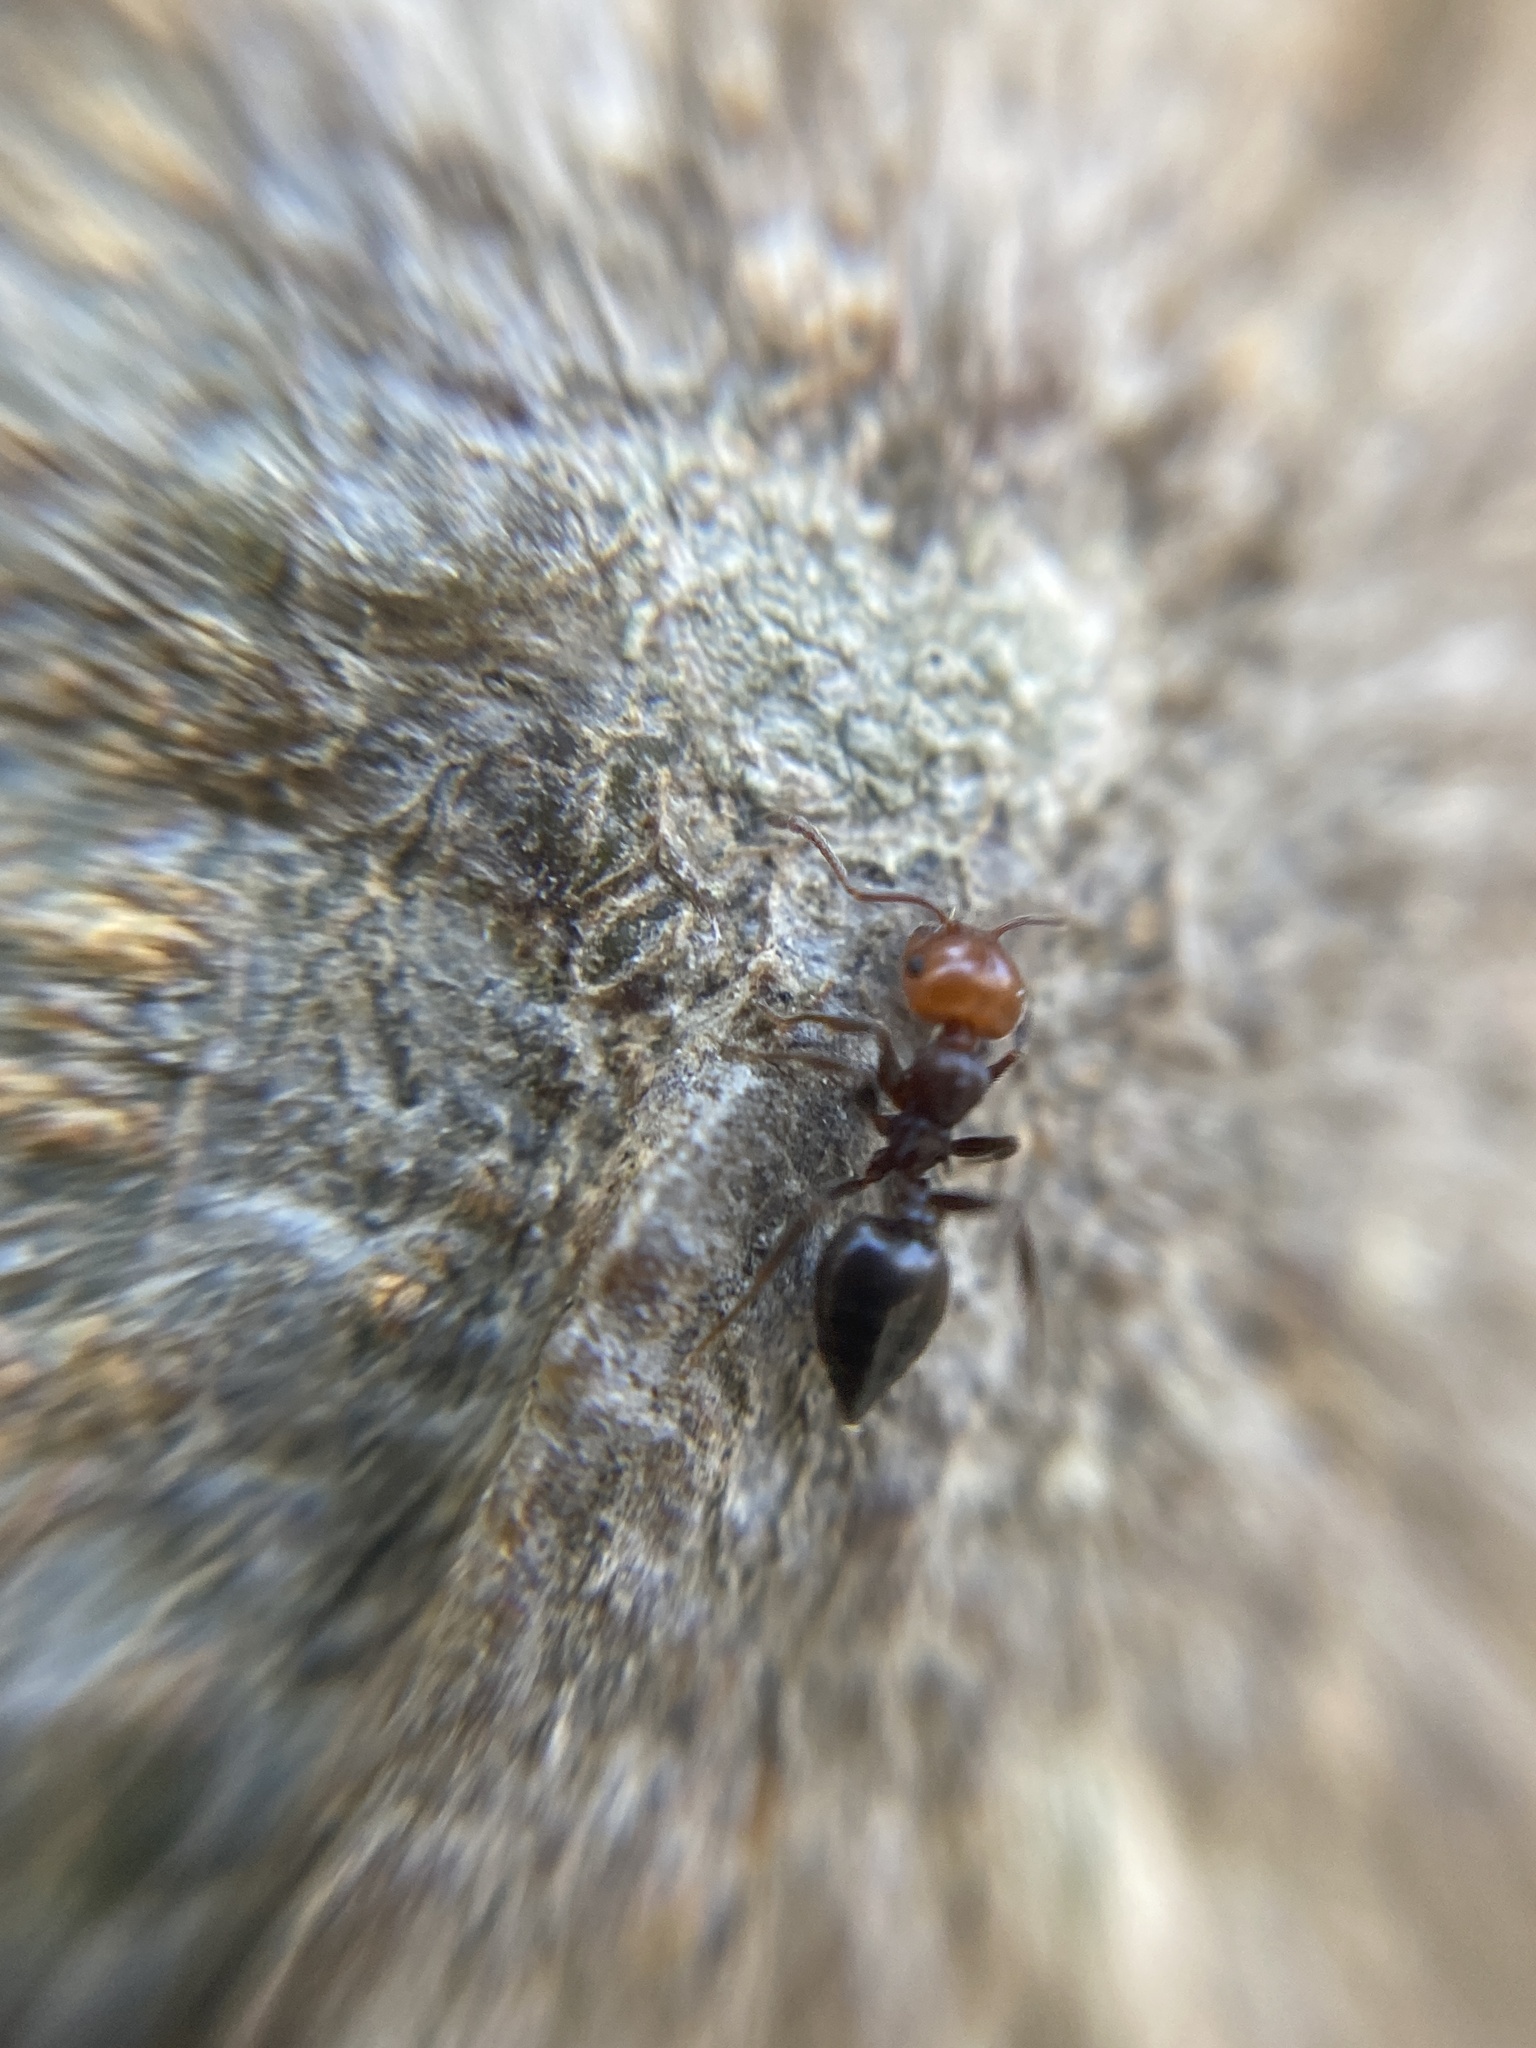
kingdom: Animalia
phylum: Arthropoda
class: Insecta
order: Hymenoptera
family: Formicidae
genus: Crematogaster
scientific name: Crematogaster scutellaris
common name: Fourmi du liège
